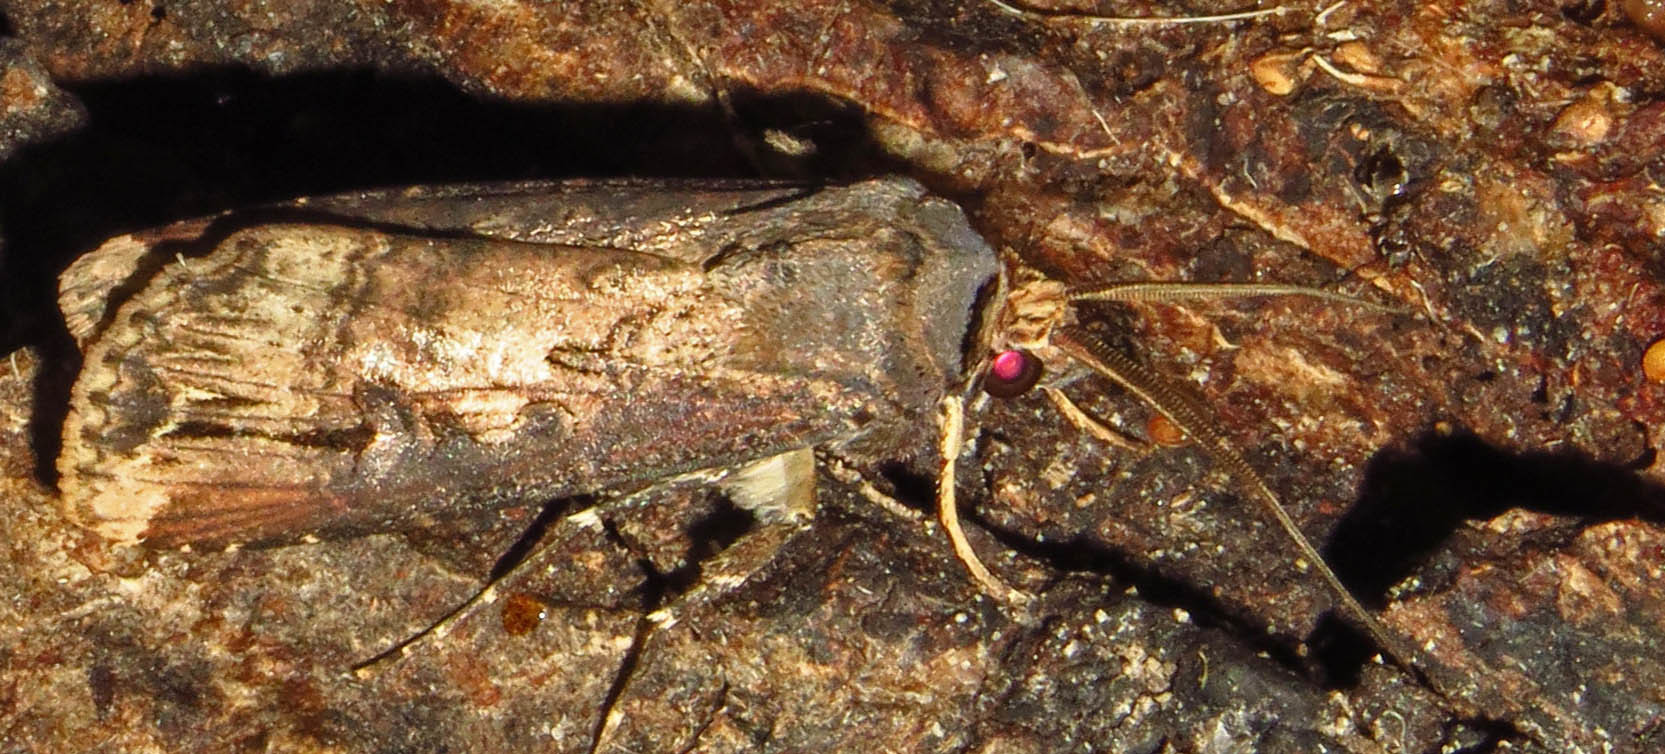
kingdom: Animalia
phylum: Arthropoda
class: Insecta
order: Lepidoptera
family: Noctuidae
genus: Agrotis
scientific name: Agrotis ipsilon
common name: Dark sword-grass
